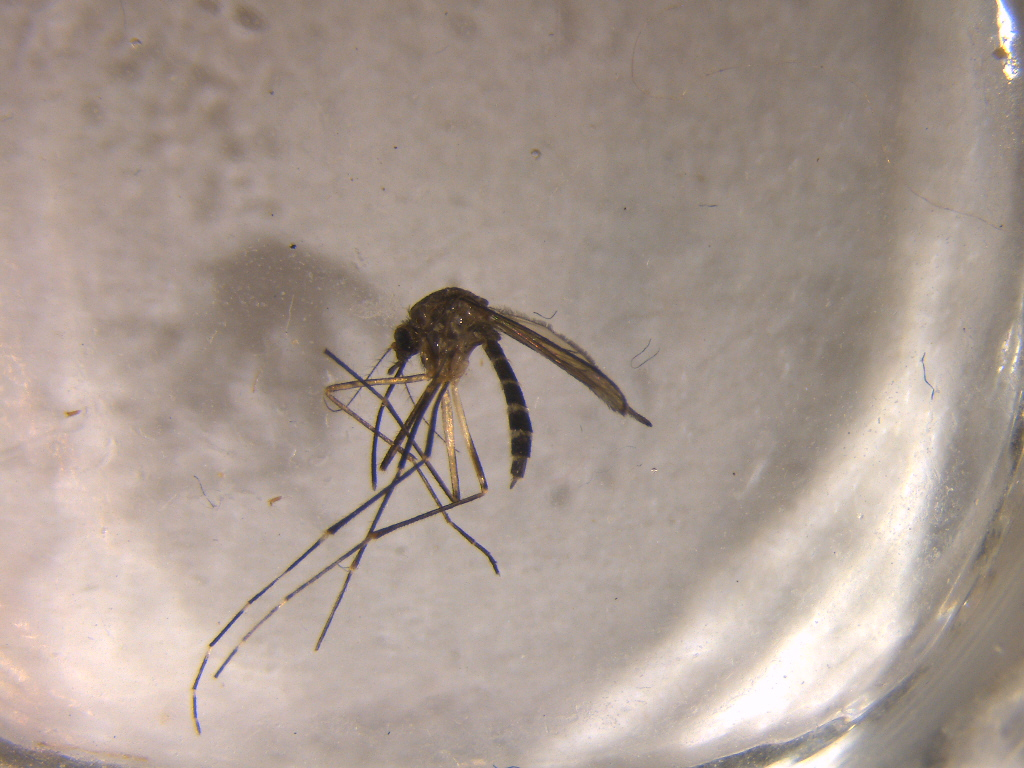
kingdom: Animalia
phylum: Arthropoda
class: Insecta
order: Diptera
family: Culicidae
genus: Aedes
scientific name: Aedes antipodeus
